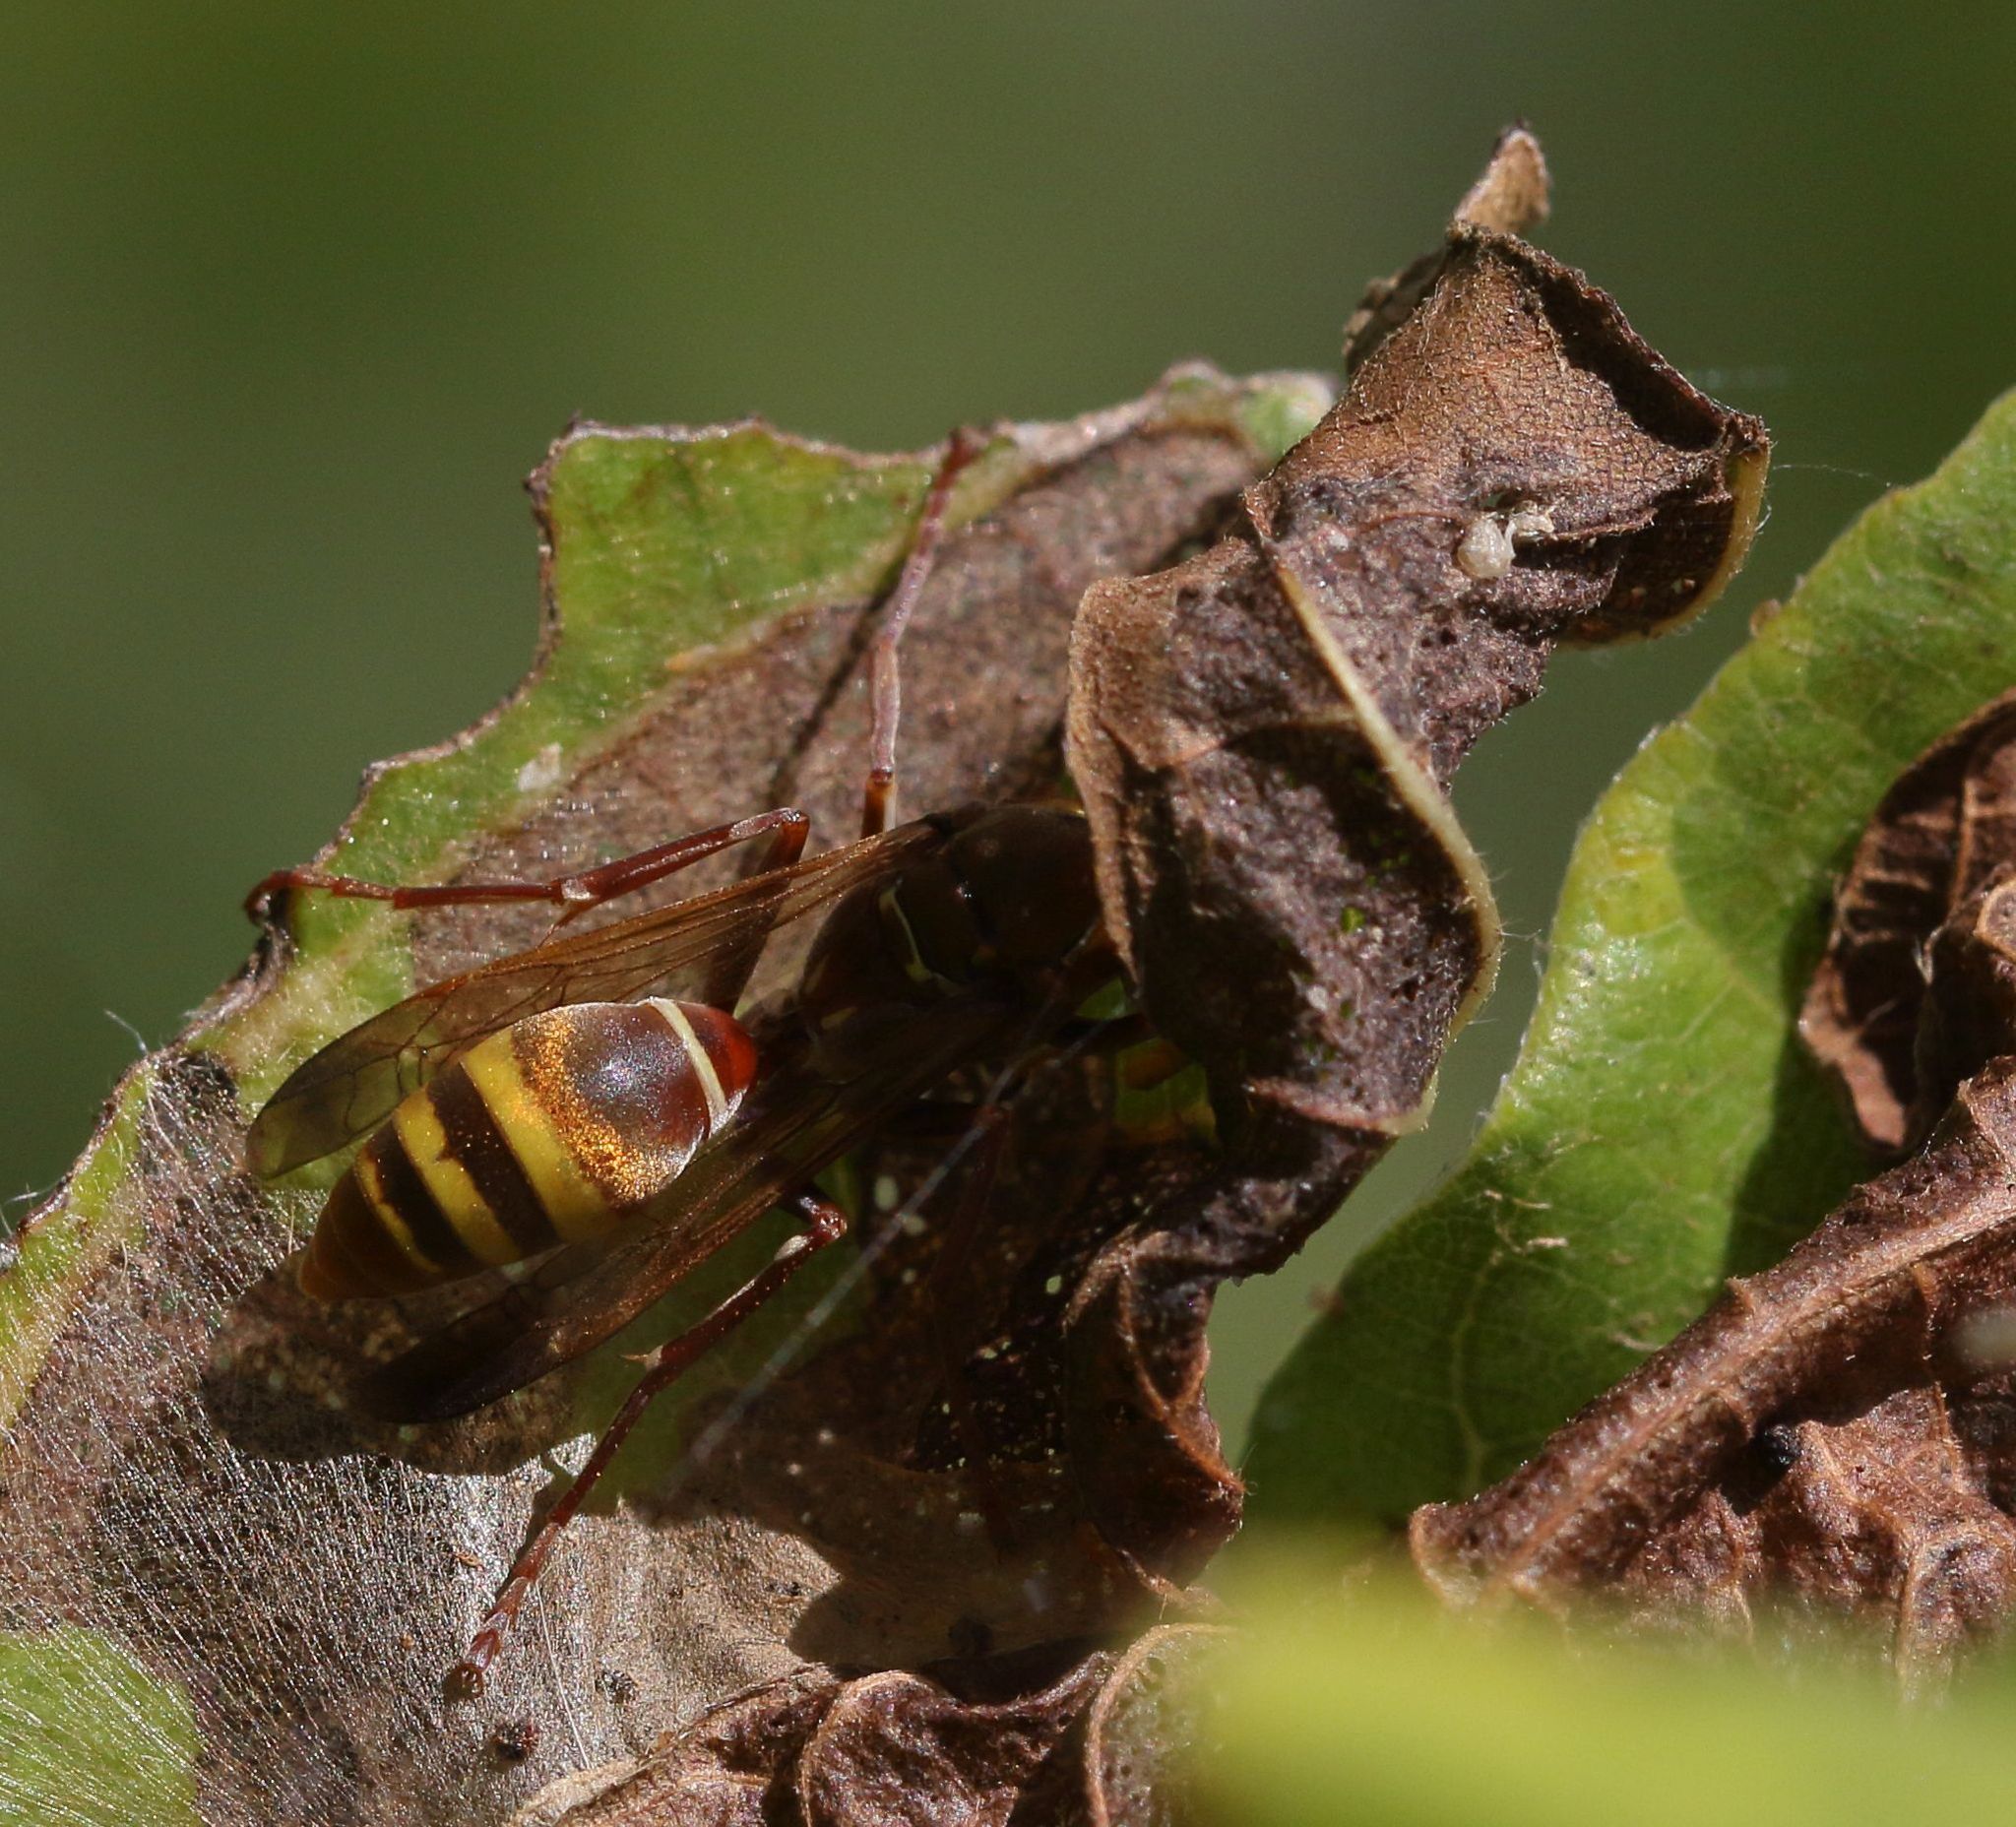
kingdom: Animalia
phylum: Arthropoda
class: Insecta
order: Hymenoptera
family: Eumenidae
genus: Polistes
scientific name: Polistes badius
